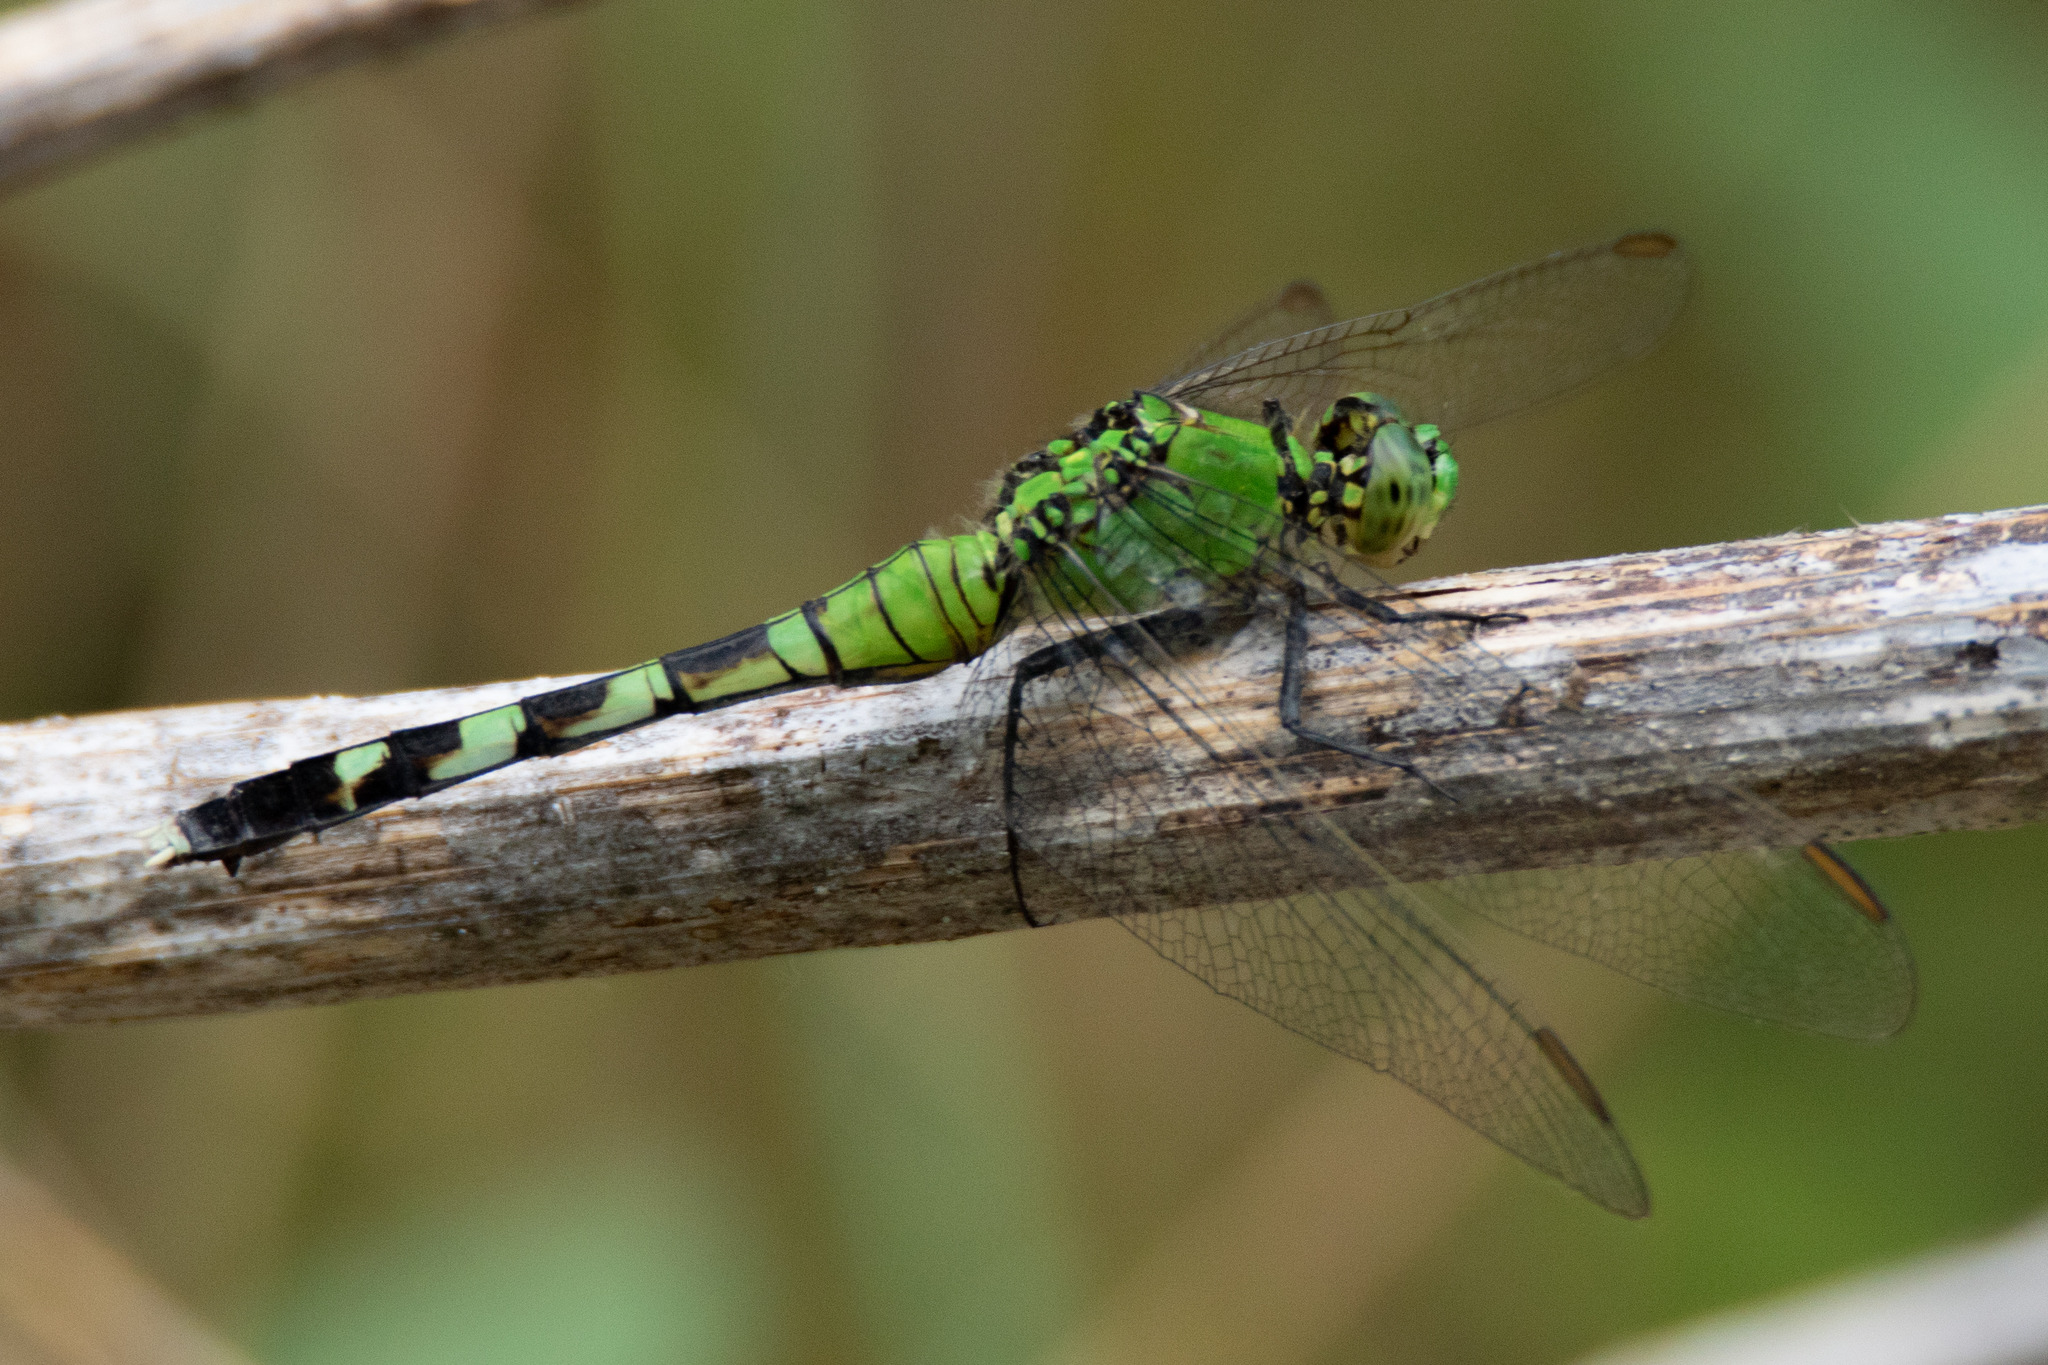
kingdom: Animalia
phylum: Arthropoda
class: Insecta
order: Odonata
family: Libellulidae
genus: Erythemis
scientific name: Erythemis simplicicollis
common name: Eastern pondhawk
